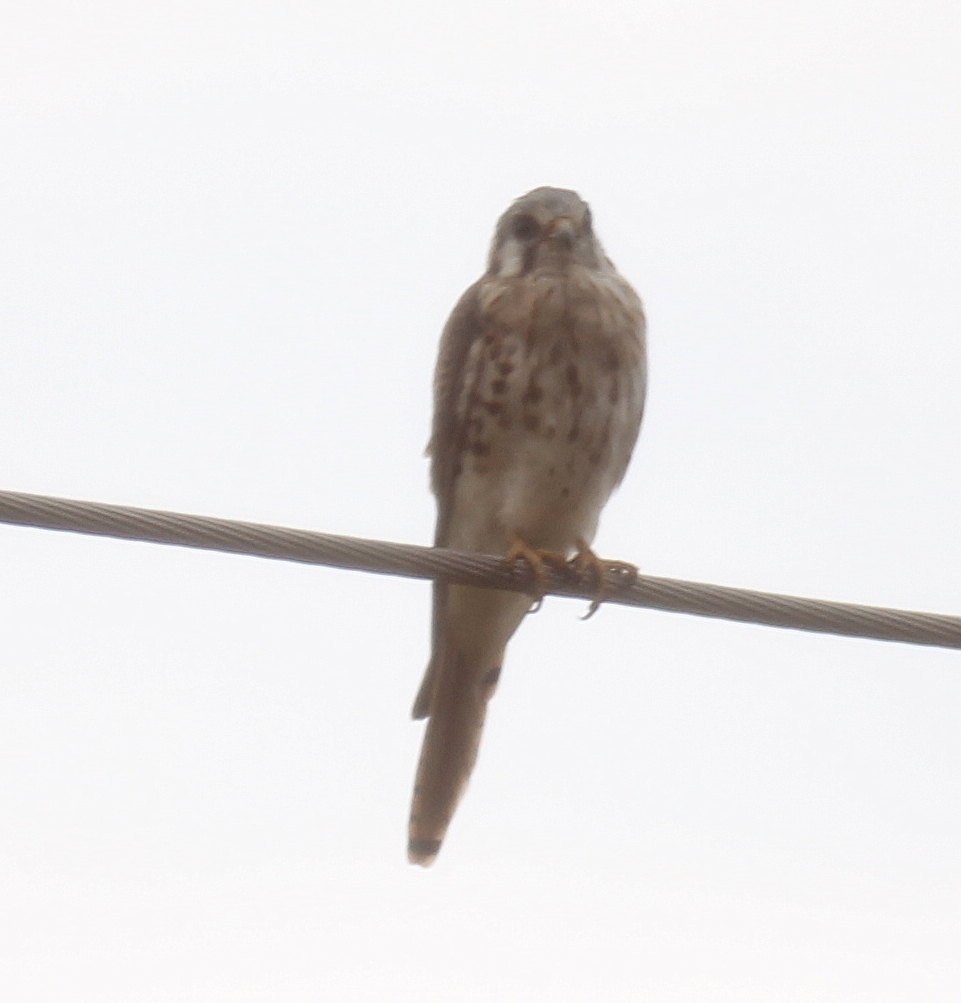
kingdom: Animalia
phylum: Chordata
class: Aves
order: Falconiformes
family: Falconidae
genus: Falco
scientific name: Falco sparverius
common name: American kestrel
